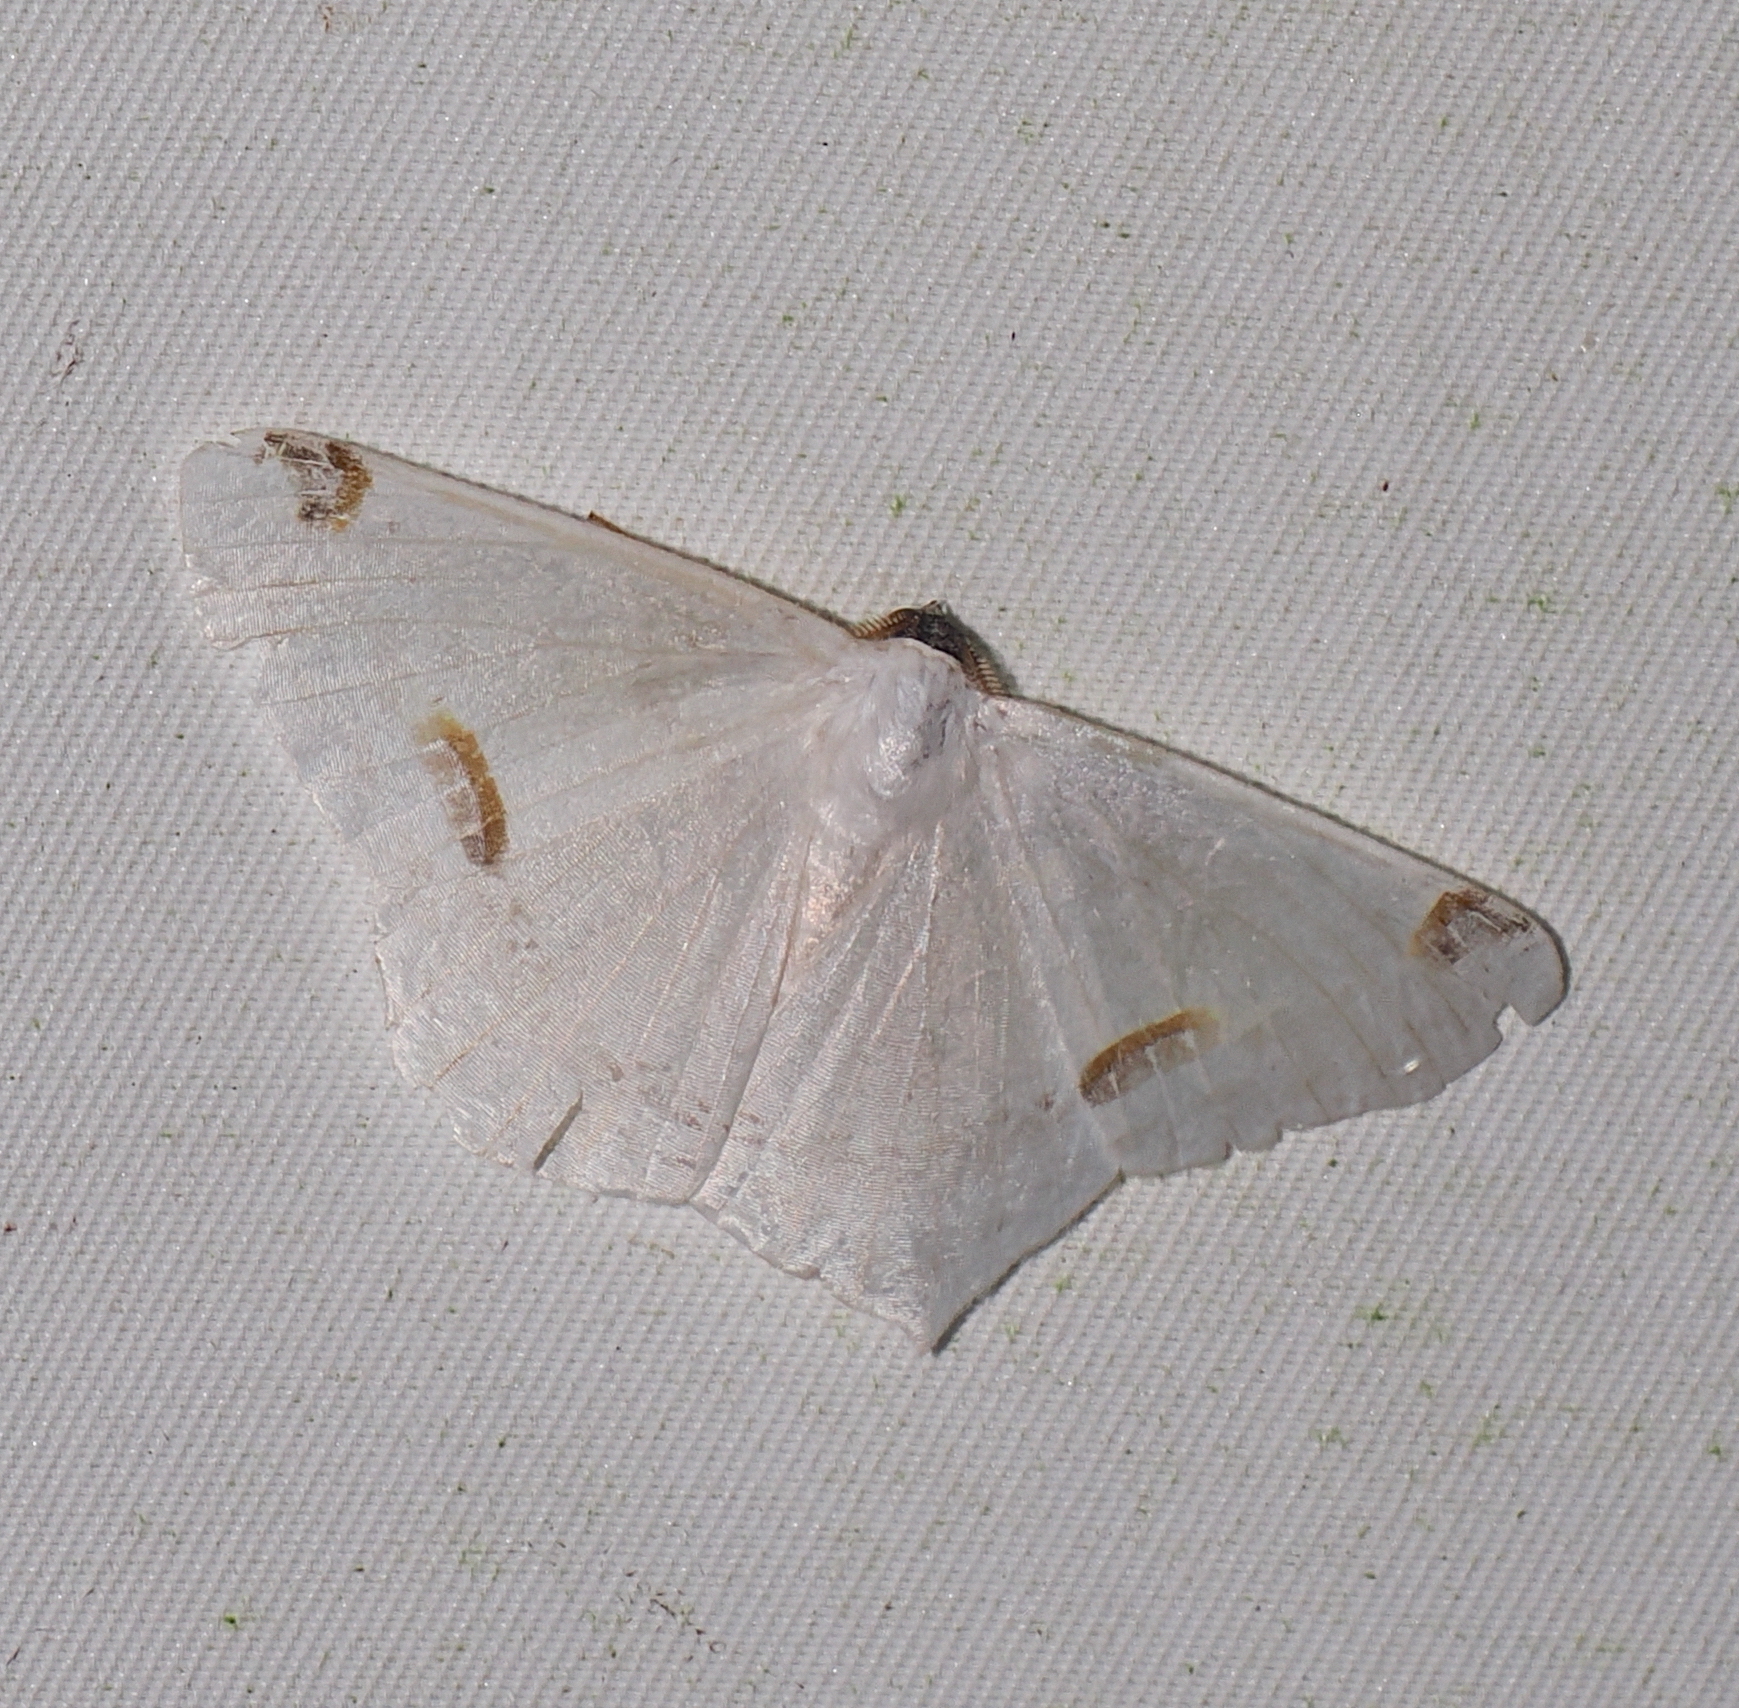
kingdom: Animalia
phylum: Arthropoda
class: Insecta
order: Lepidoptera
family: Geometridae
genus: Sericoptera
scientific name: Sericoptera area
